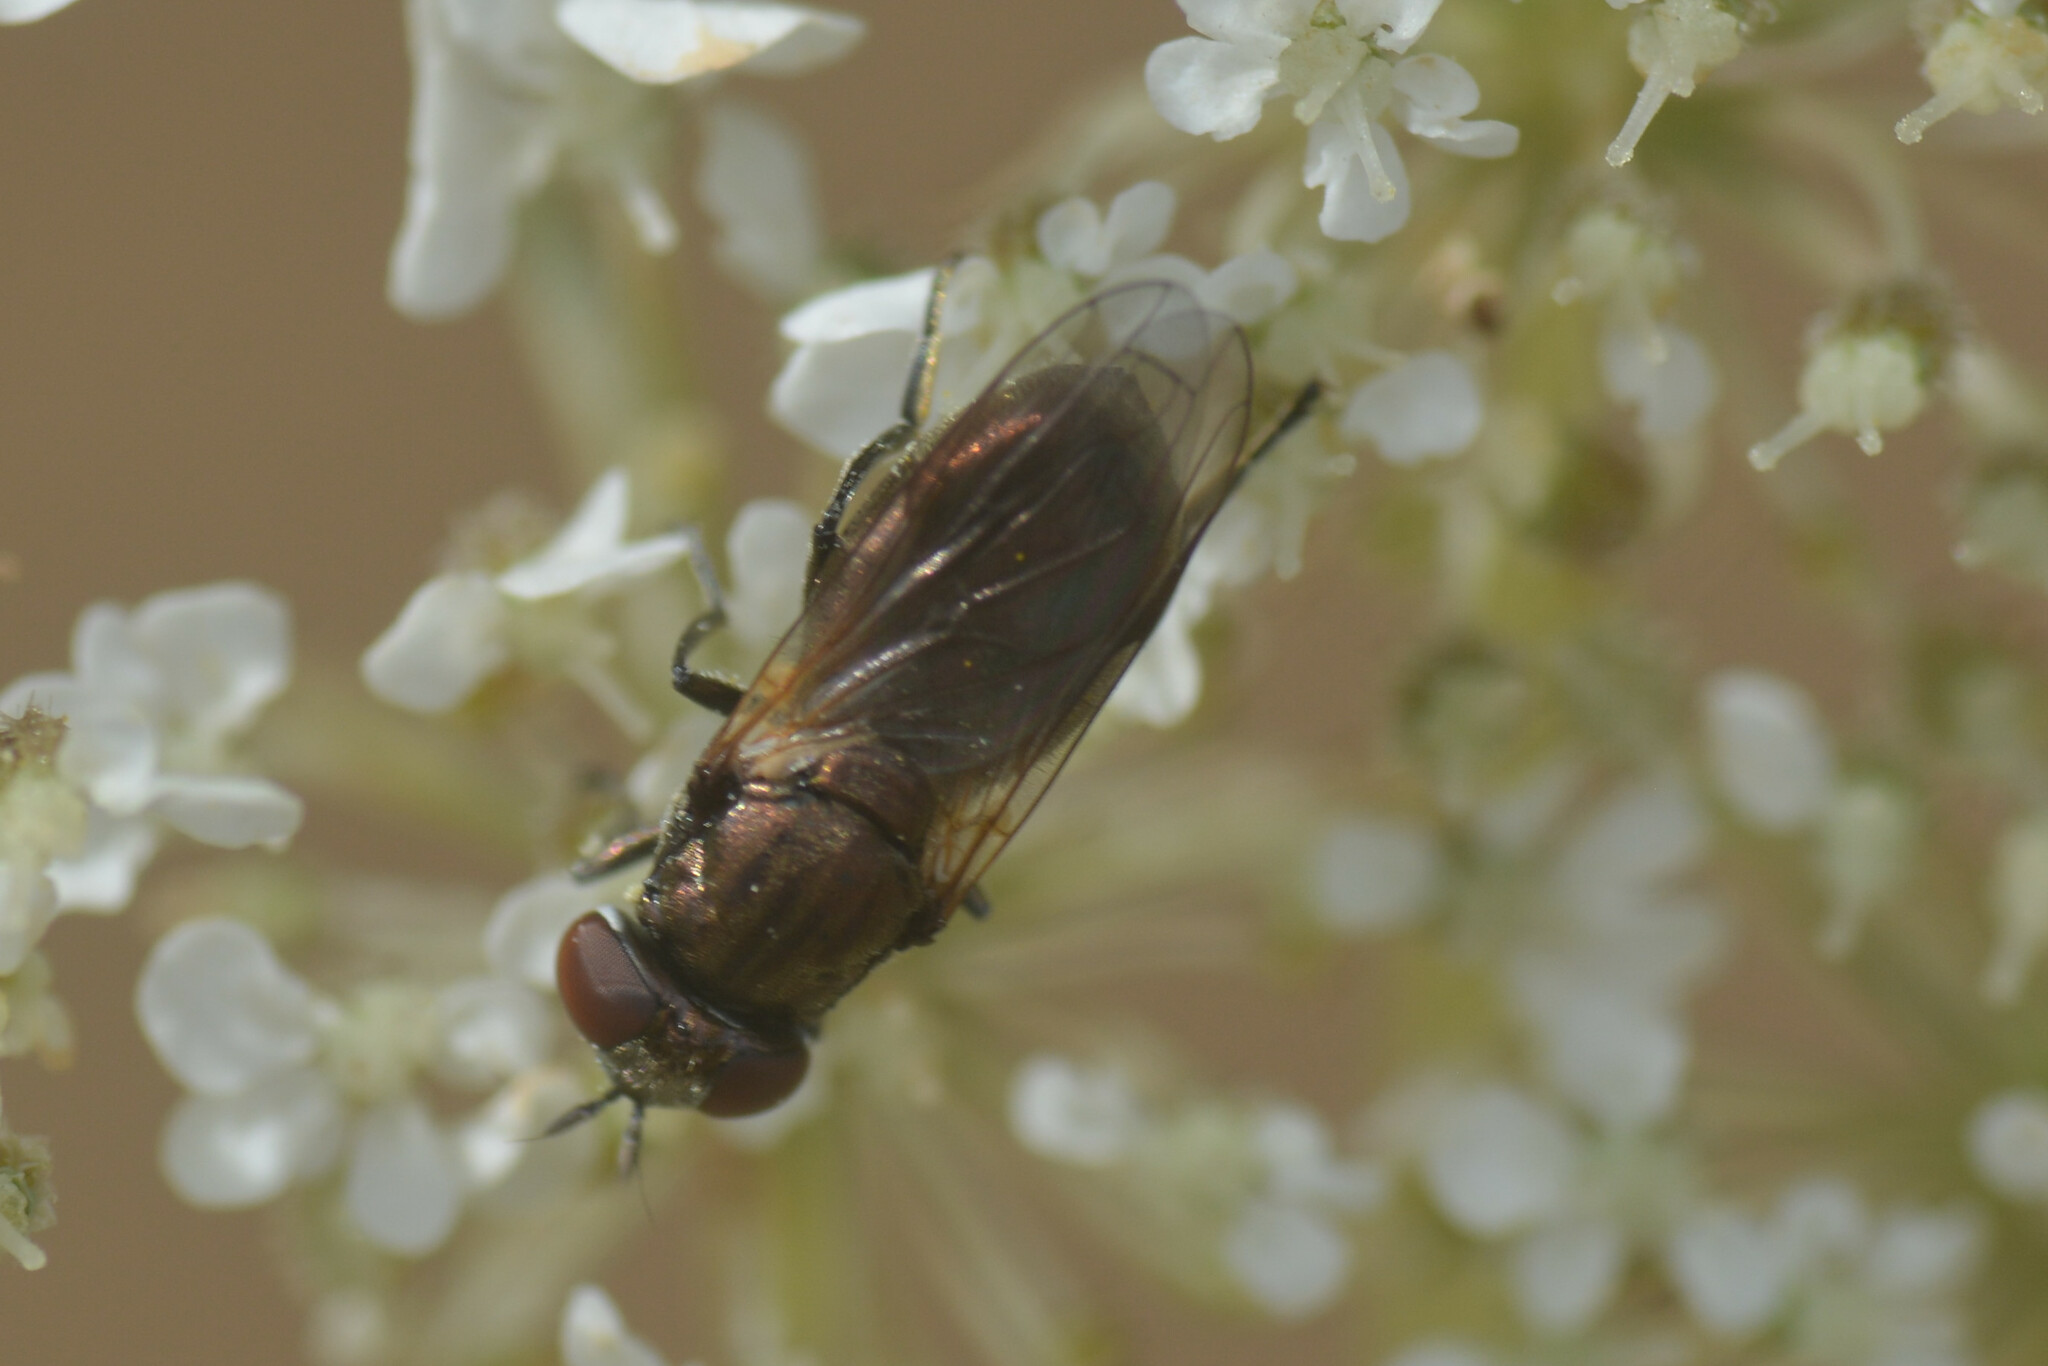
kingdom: Animalia
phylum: Arthropoda
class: Insecta
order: Diptera
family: Syrphidae
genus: Orthonevra
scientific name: Orthonevra nobilis
